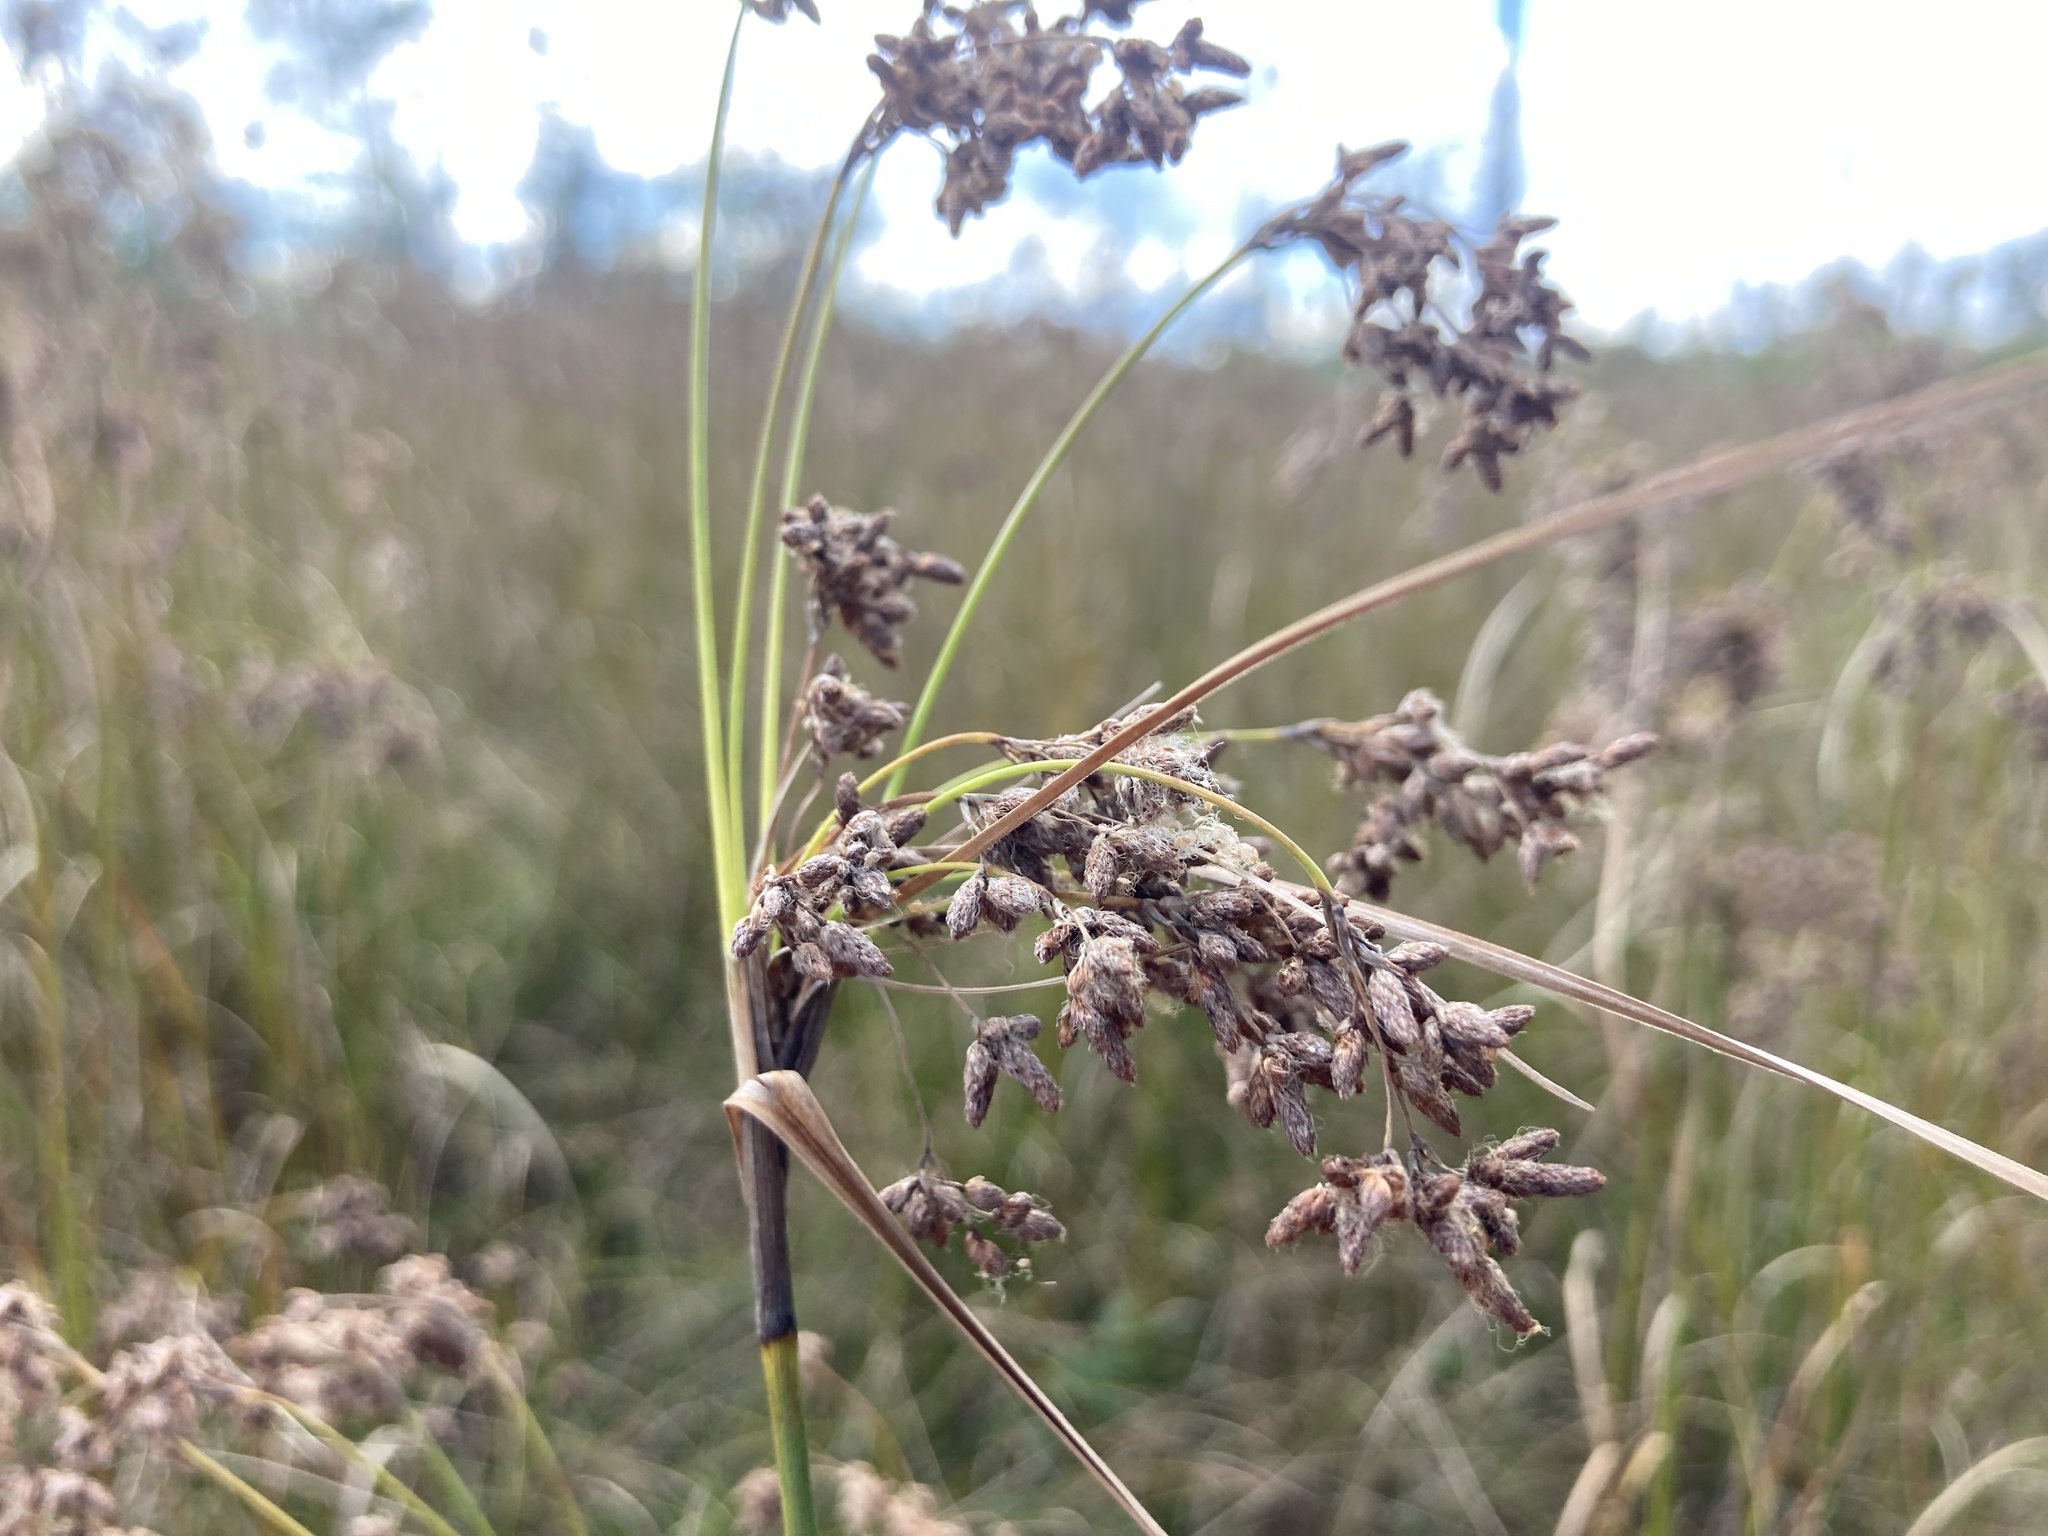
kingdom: Plantae
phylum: Tracheophyta
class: Liliopsida
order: Poales
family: Cyperaceae
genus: Scirpus
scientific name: Scirpus cyperinus
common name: Black-sheathed bulrush
